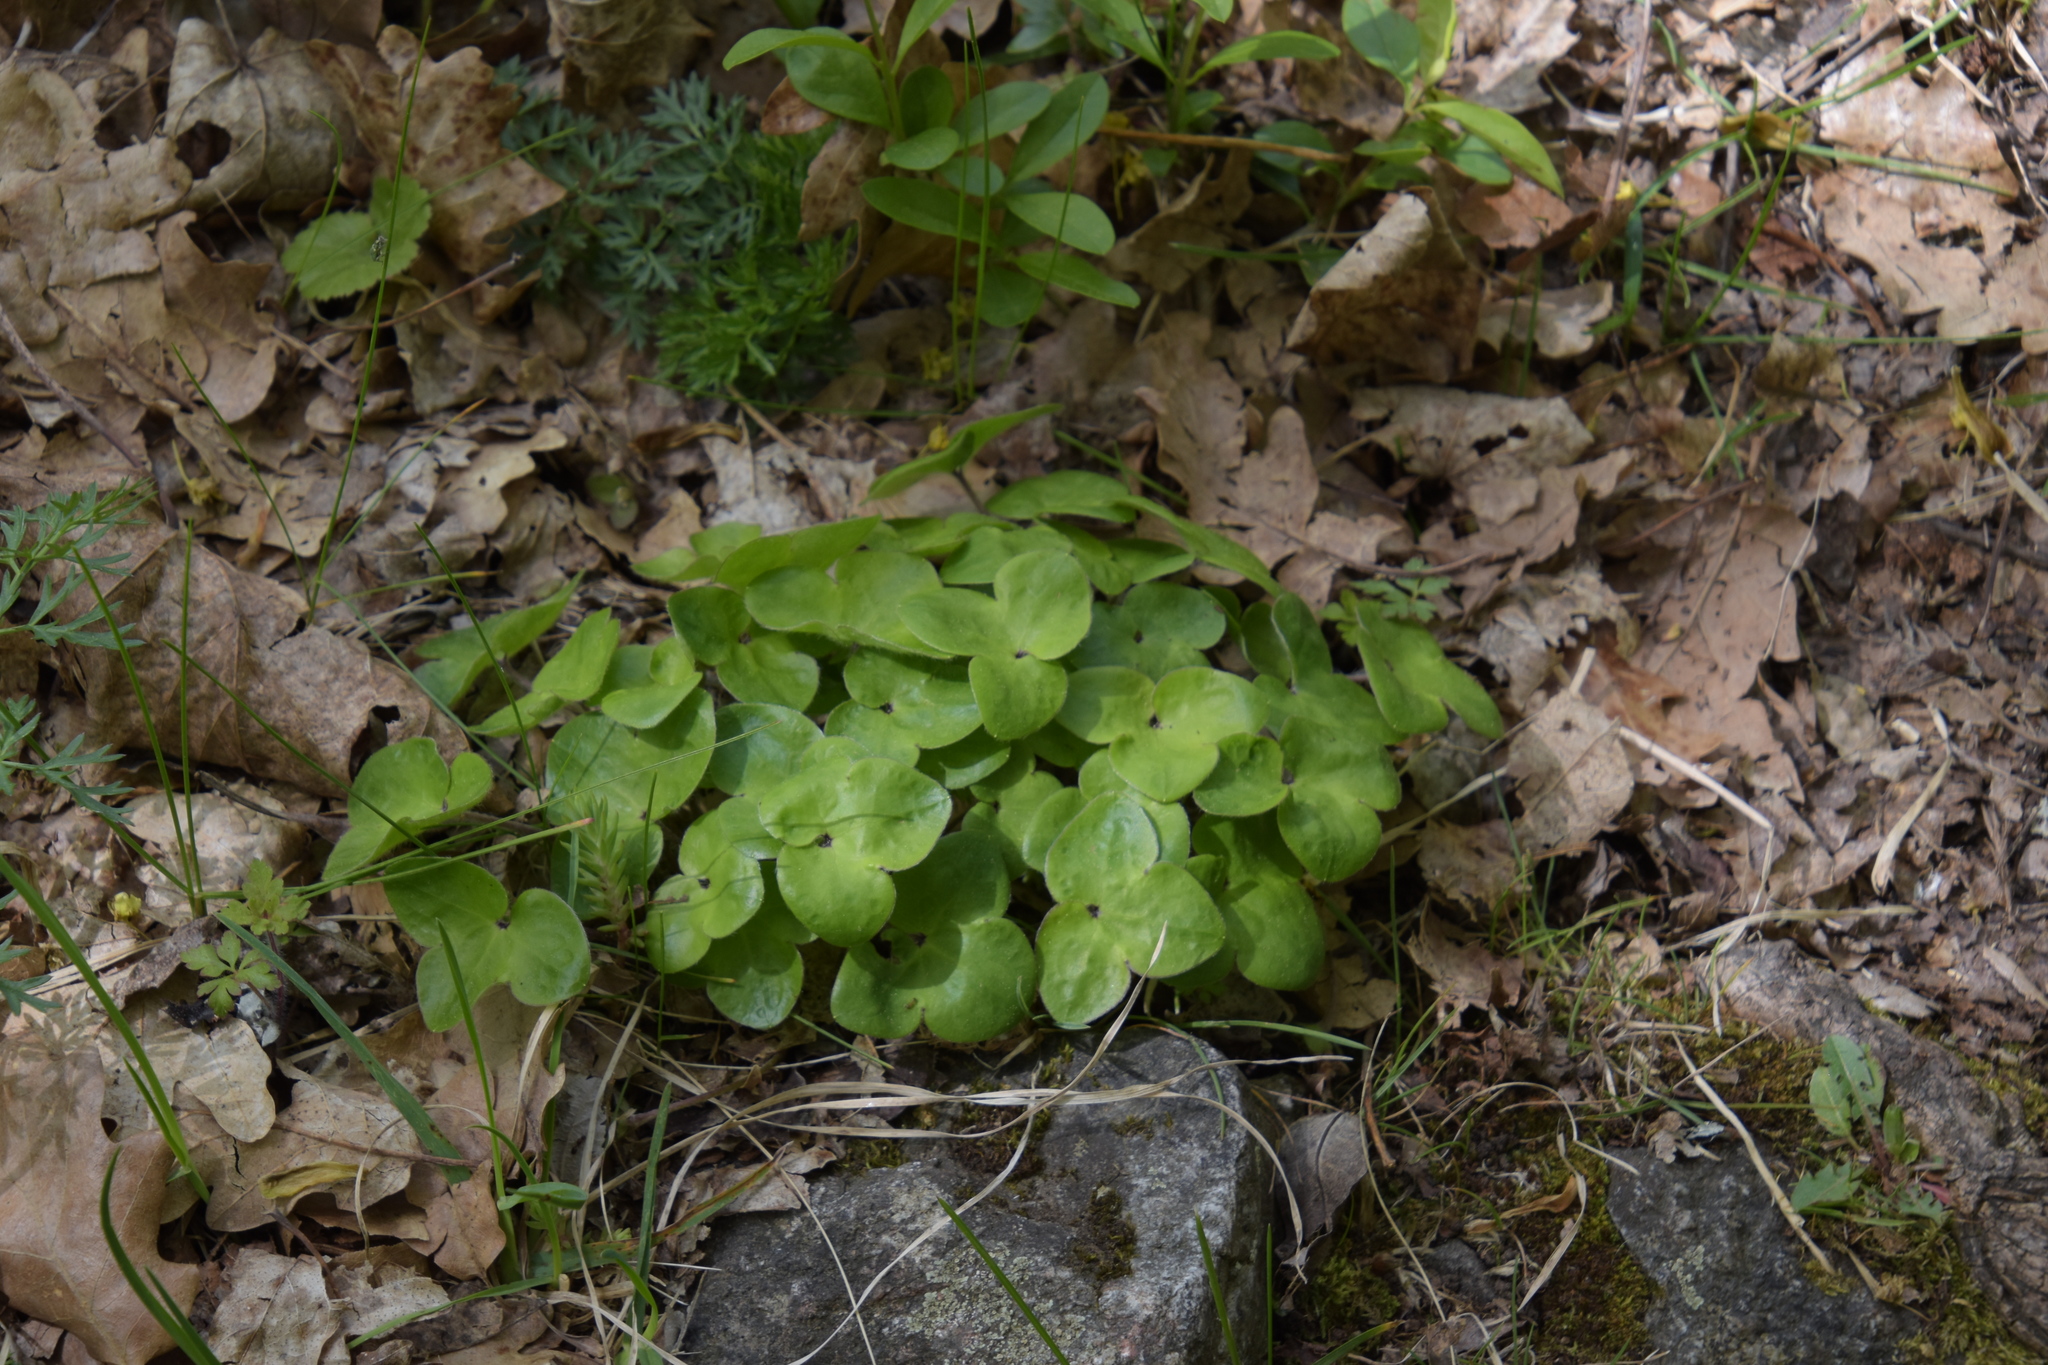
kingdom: Plantae
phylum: Tracheophyta
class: Magnoliopsida
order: Ranunculales
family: Ranunculaceae
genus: Hepatica
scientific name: Hepatica nobilis
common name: Liverleaf
